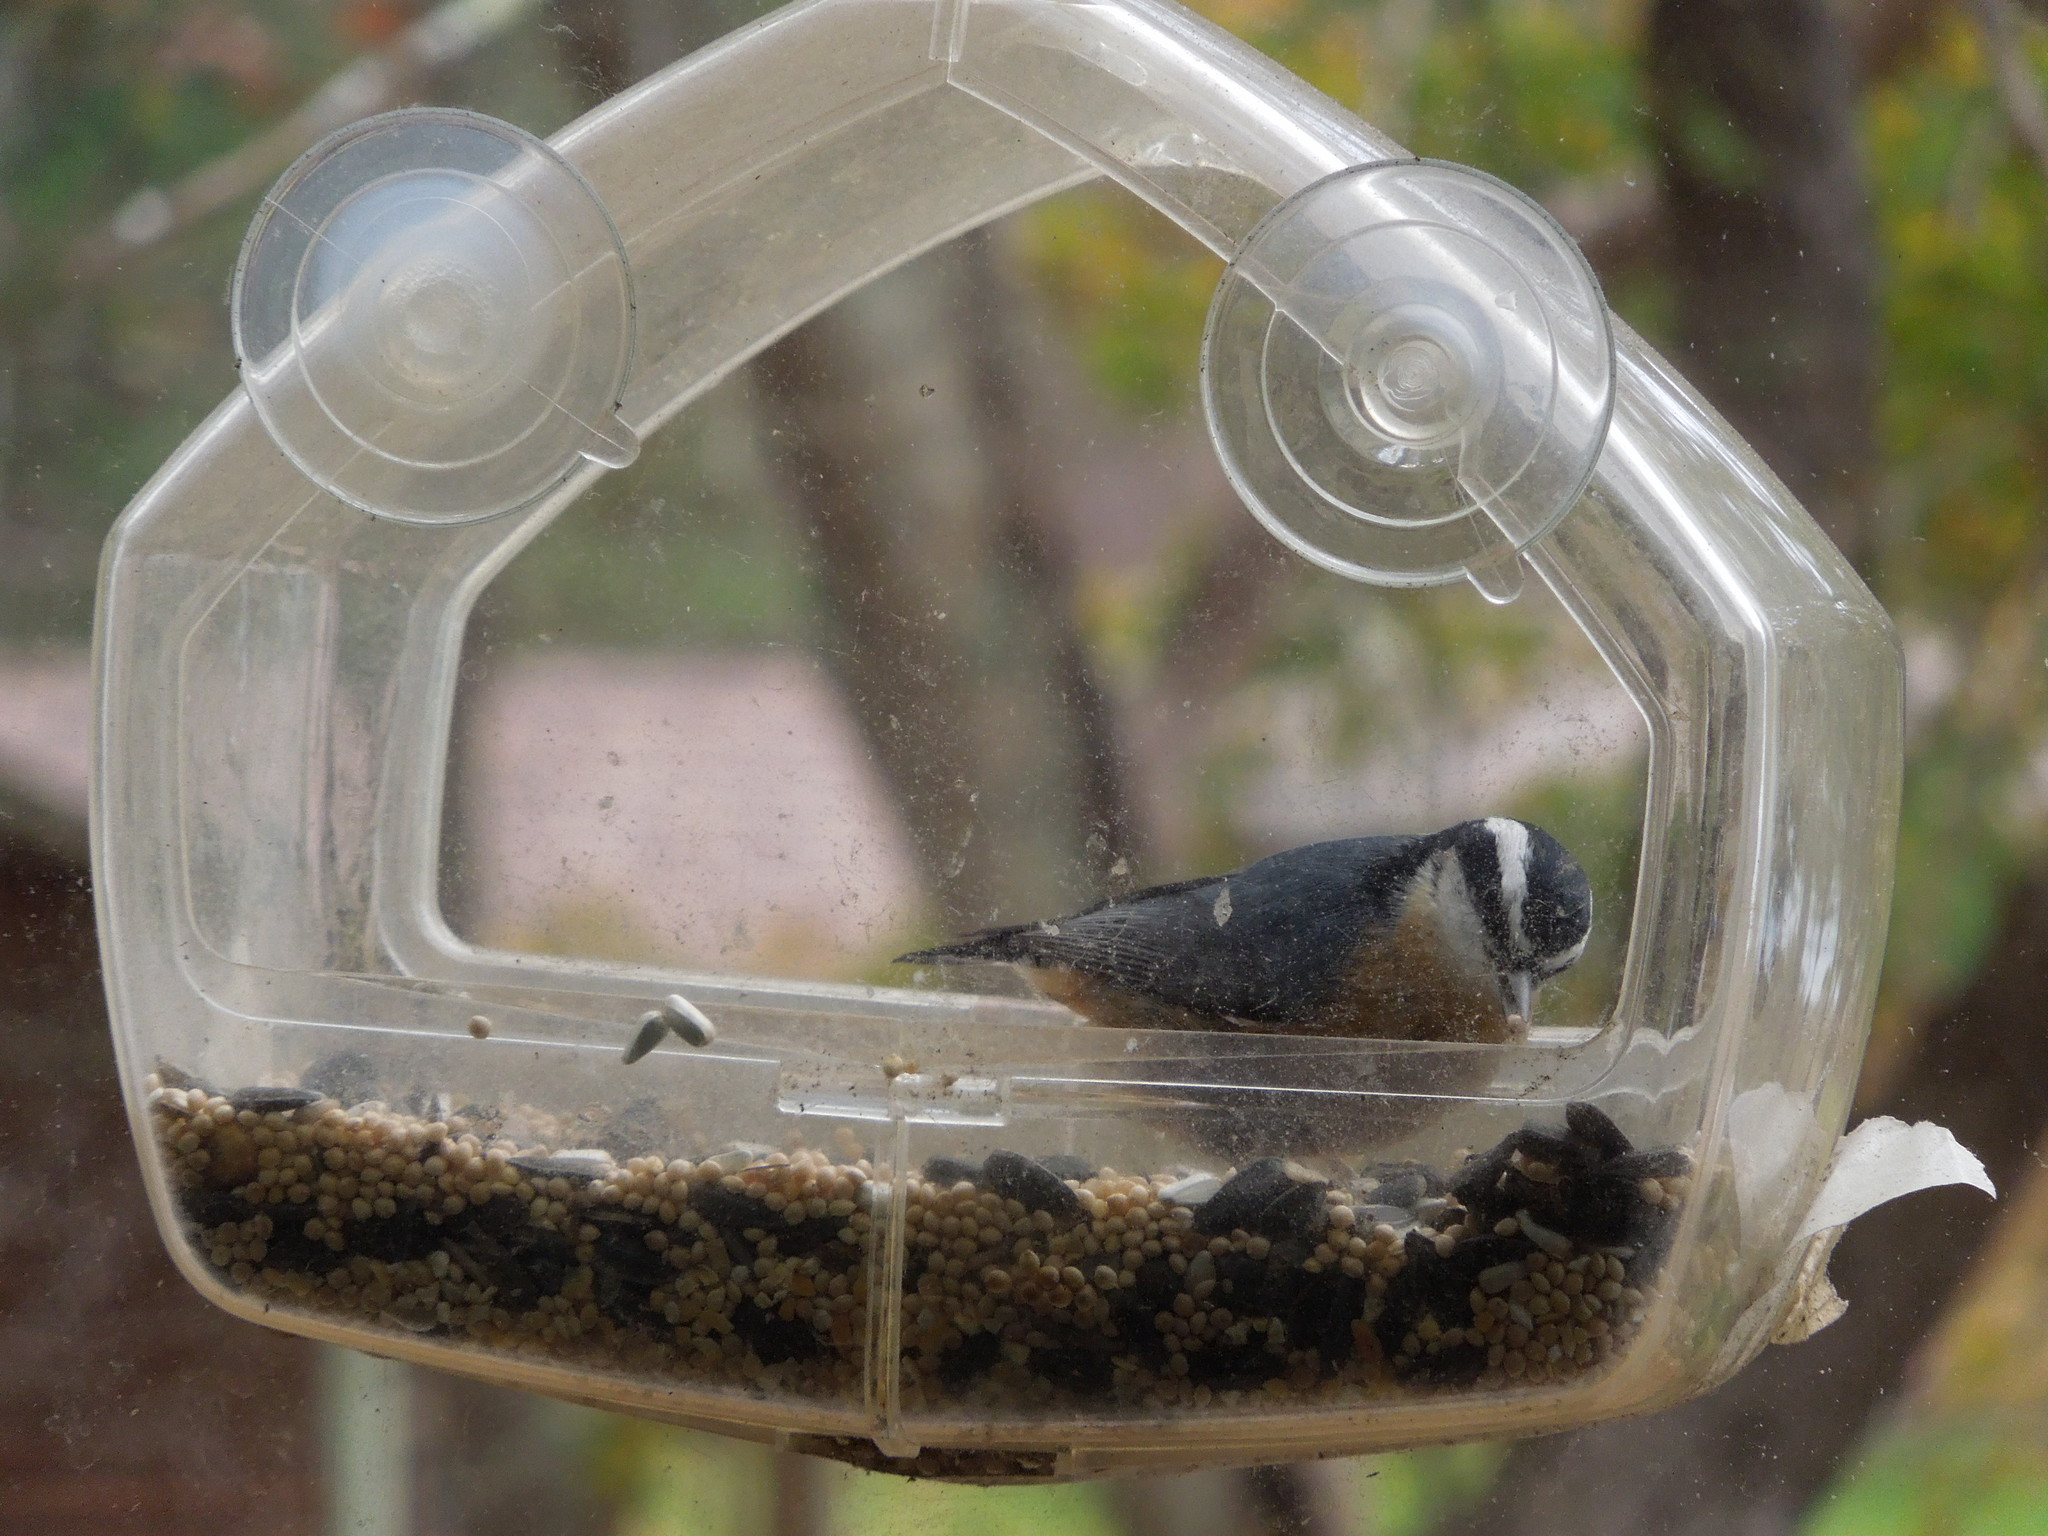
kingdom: Animalia
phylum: Chordata
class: Aves
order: Passeriformes
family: Sittidae
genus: Sitta
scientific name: Sitta canadensis
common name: Red-breasted nuthatch
